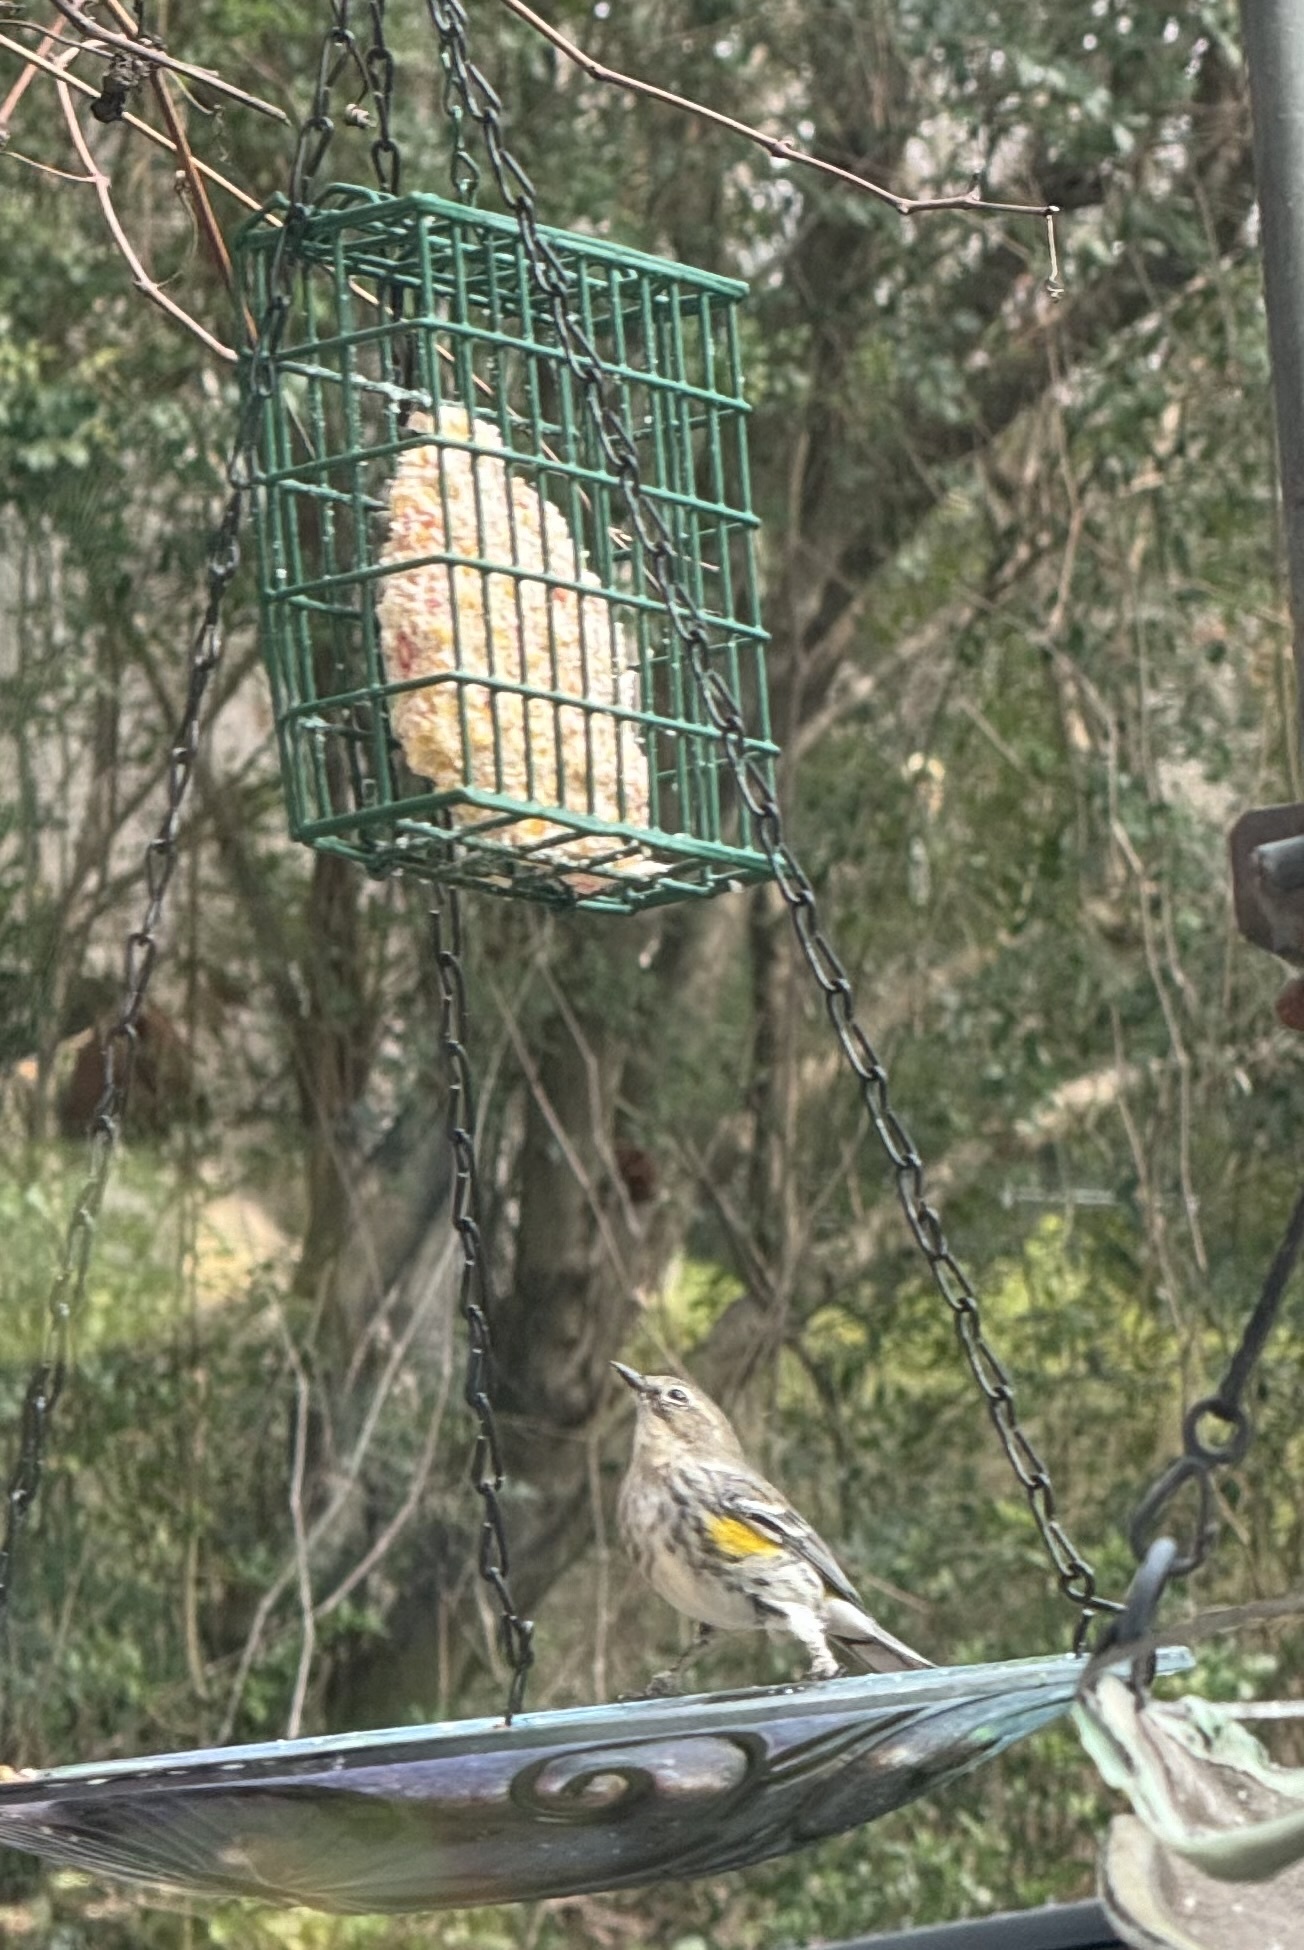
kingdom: Animalia
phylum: Chordata
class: Aves
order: Passeriformes
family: Parulidae
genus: Setophaga
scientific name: Setophaga coronata
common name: Myrtle warbler
